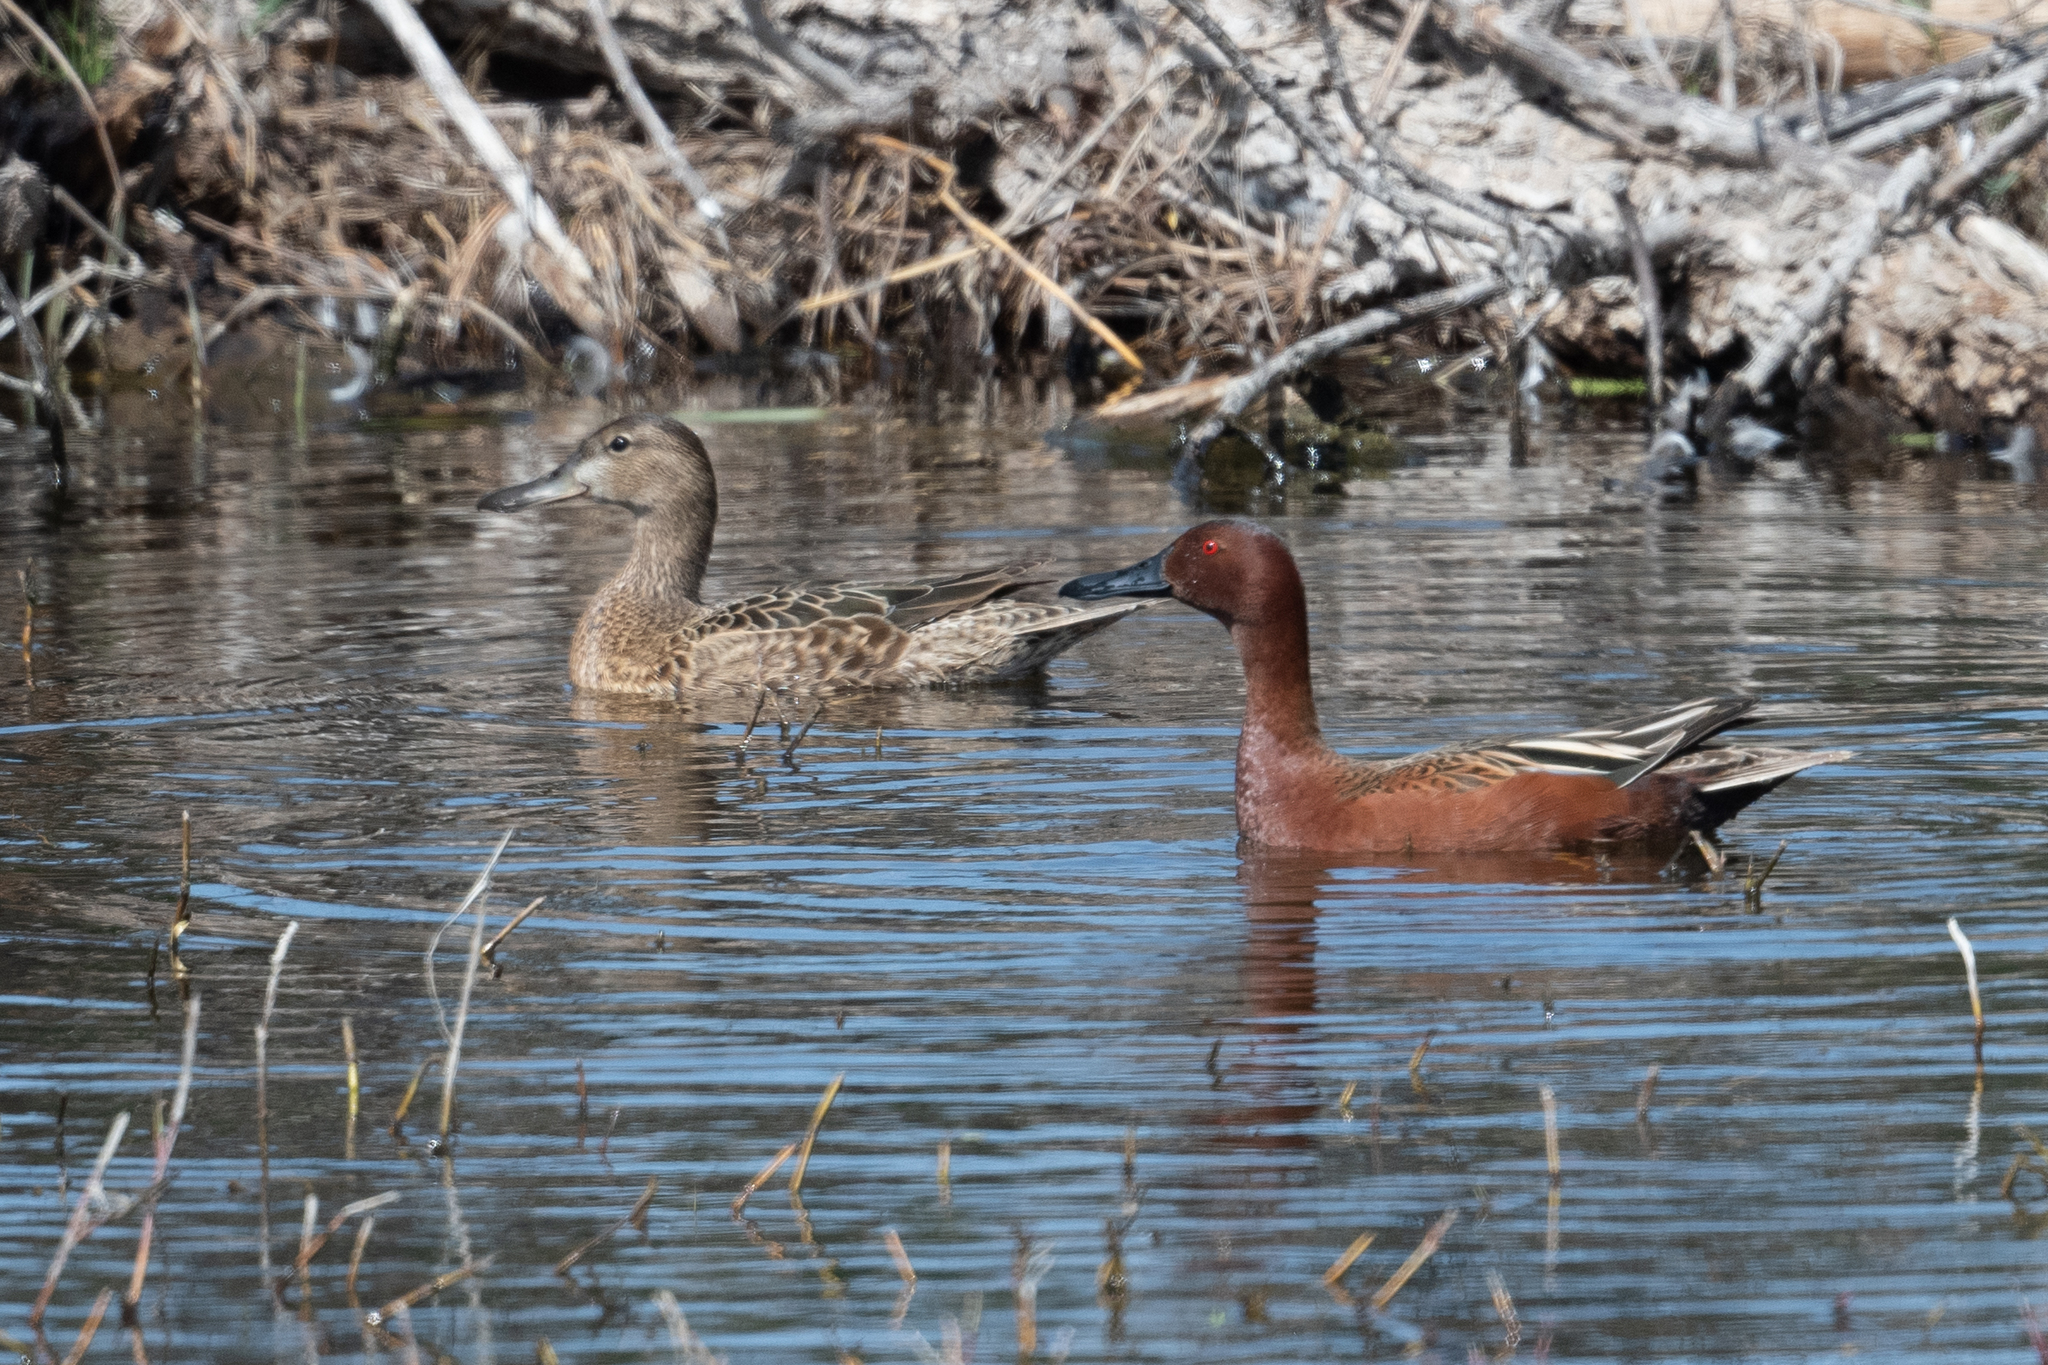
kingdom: Animalia
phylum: Chordata
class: Aves
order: Anseriformes
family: Anatidae
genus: Spatula
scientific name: Spatula cyanoptera
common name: Cinnamon teal
